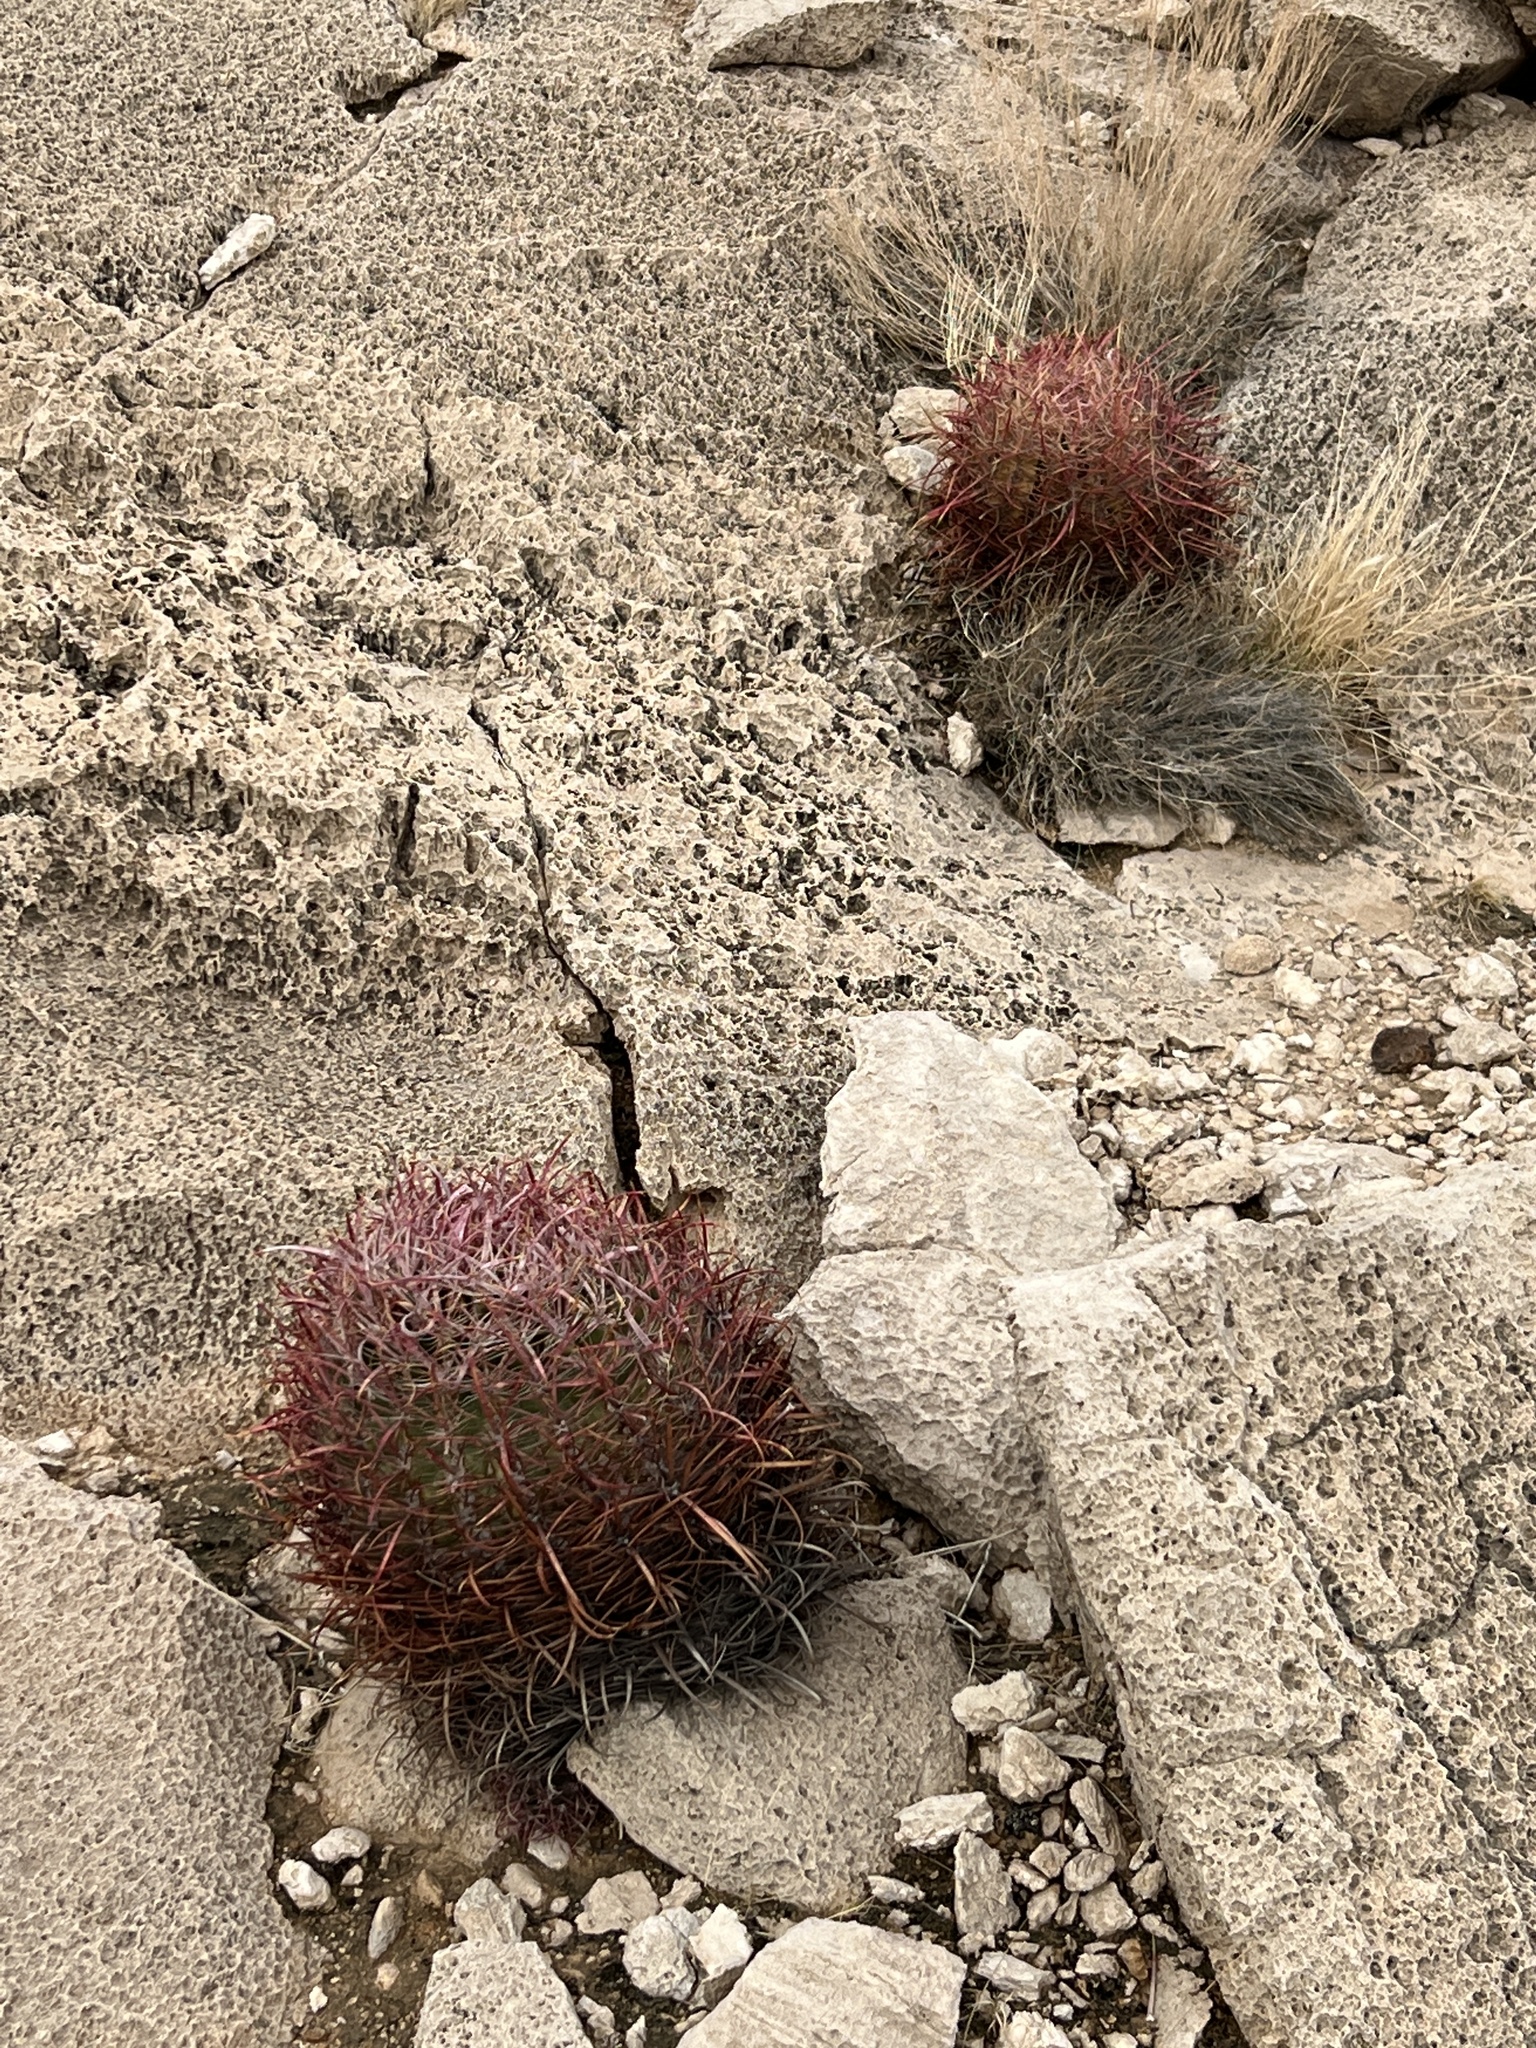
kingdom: Plantae
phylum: Tracheophyta
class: Magnoliopsida
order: Caryophyllales
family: Cactaceae
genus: Ferocactus
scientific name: Ferocactus cylindraceus
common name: California barrel cactus
